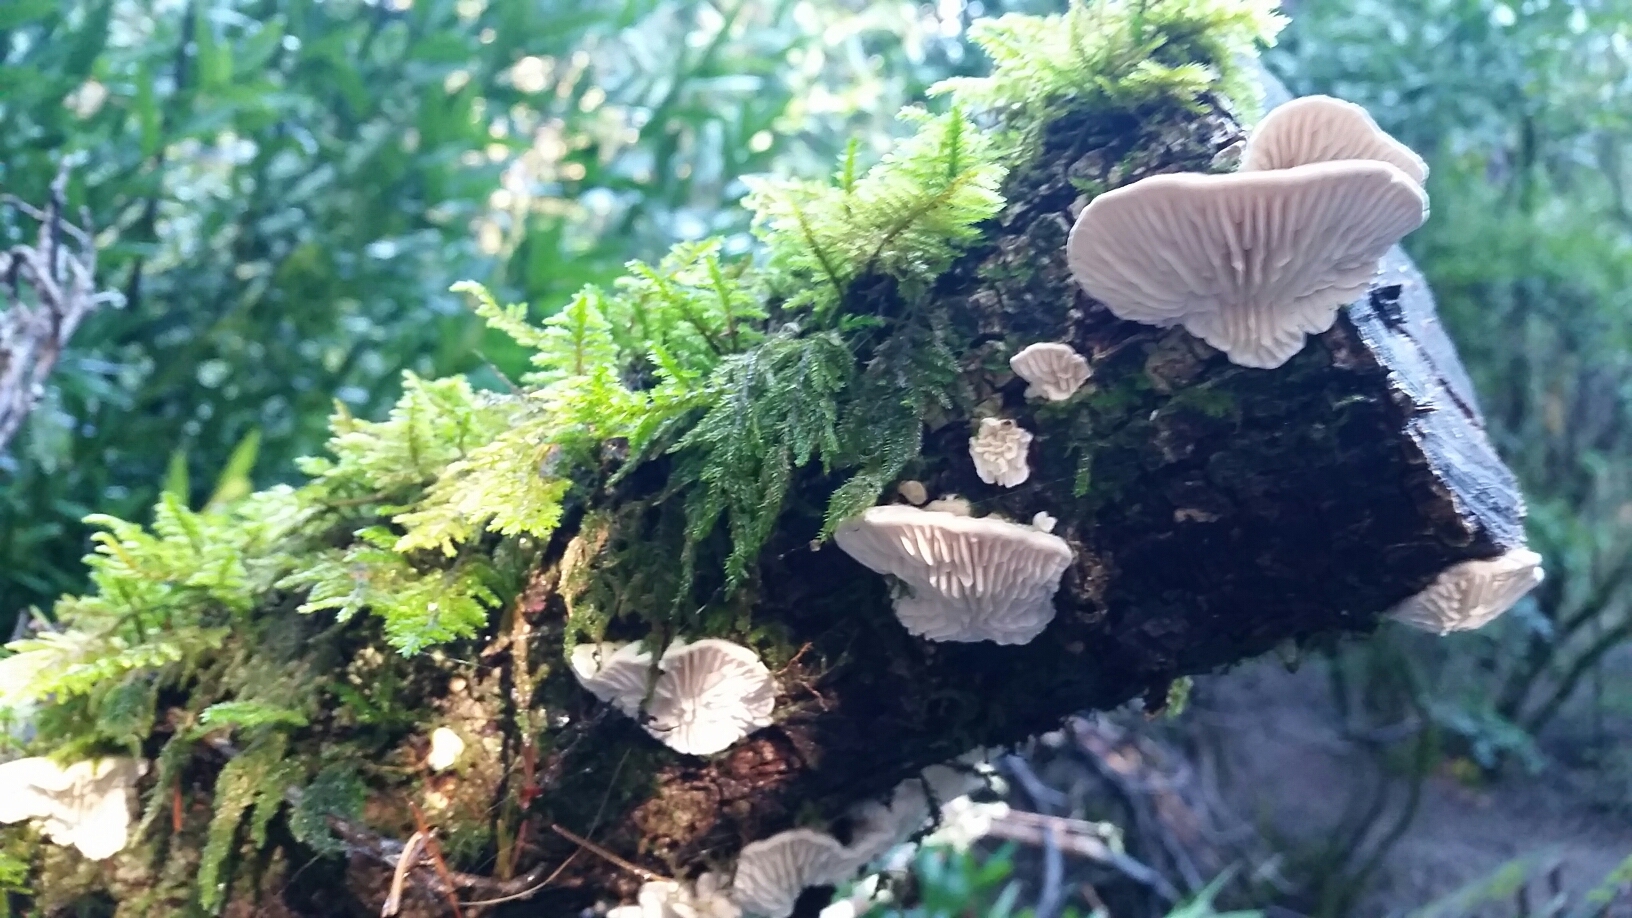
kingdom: Fungi
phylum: Basidiomycota
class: Agaricomycetes
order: Polyporales
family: Polyporaceae
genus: Lenzites
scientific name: Lenzites betulinus
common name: Birch mazegill
